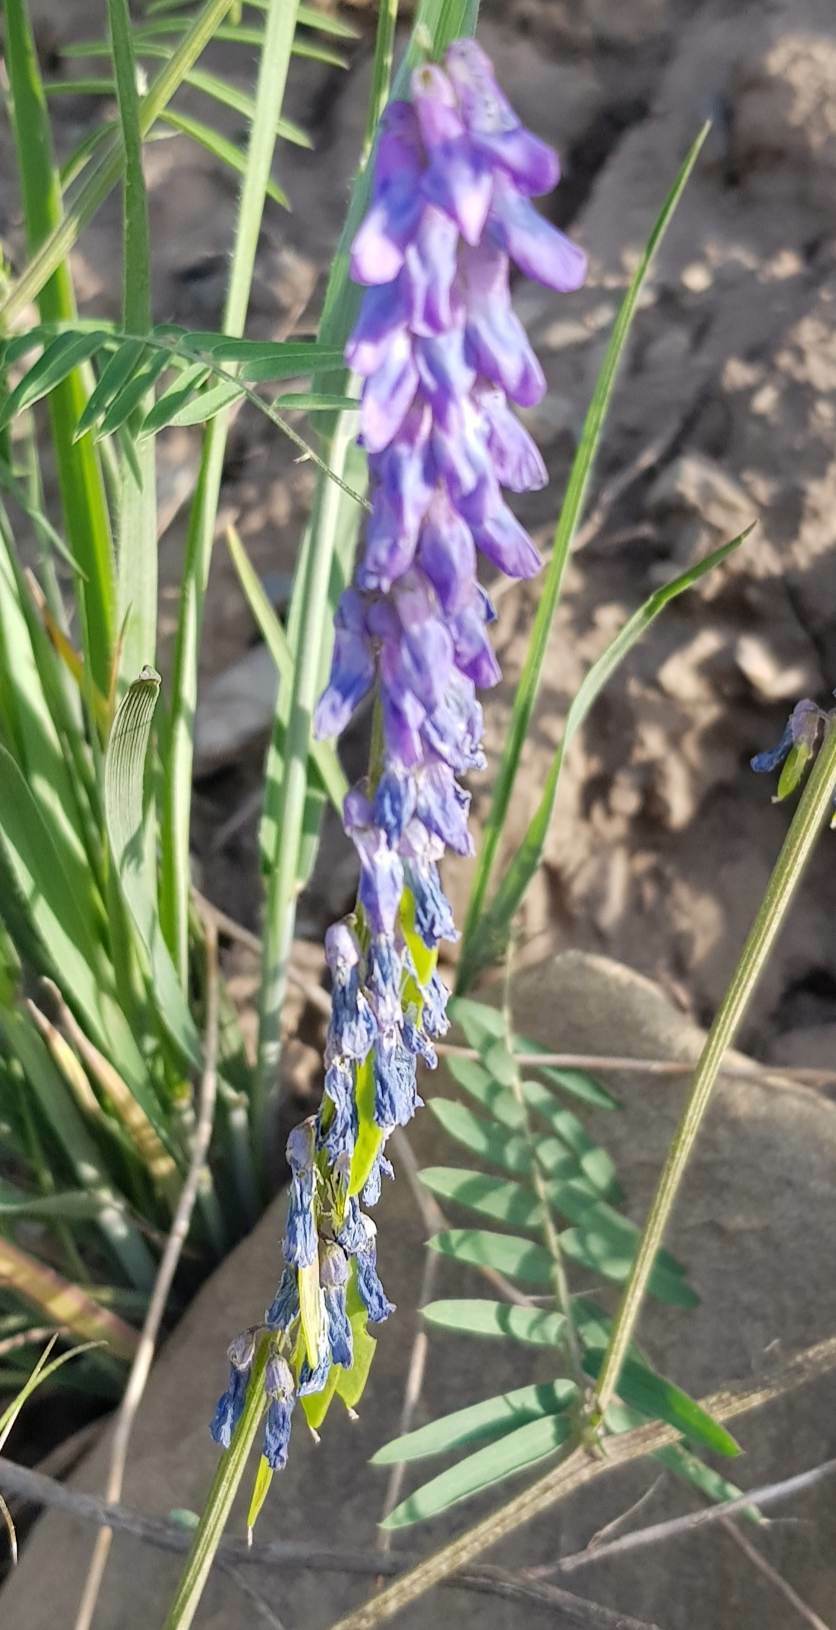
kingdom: Plantae
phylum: Tracheophyta
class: Magnoliopsida
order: Fabales
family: Fabaceae
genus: Vicia
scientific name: Vicia cracca
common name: Bird vetch
